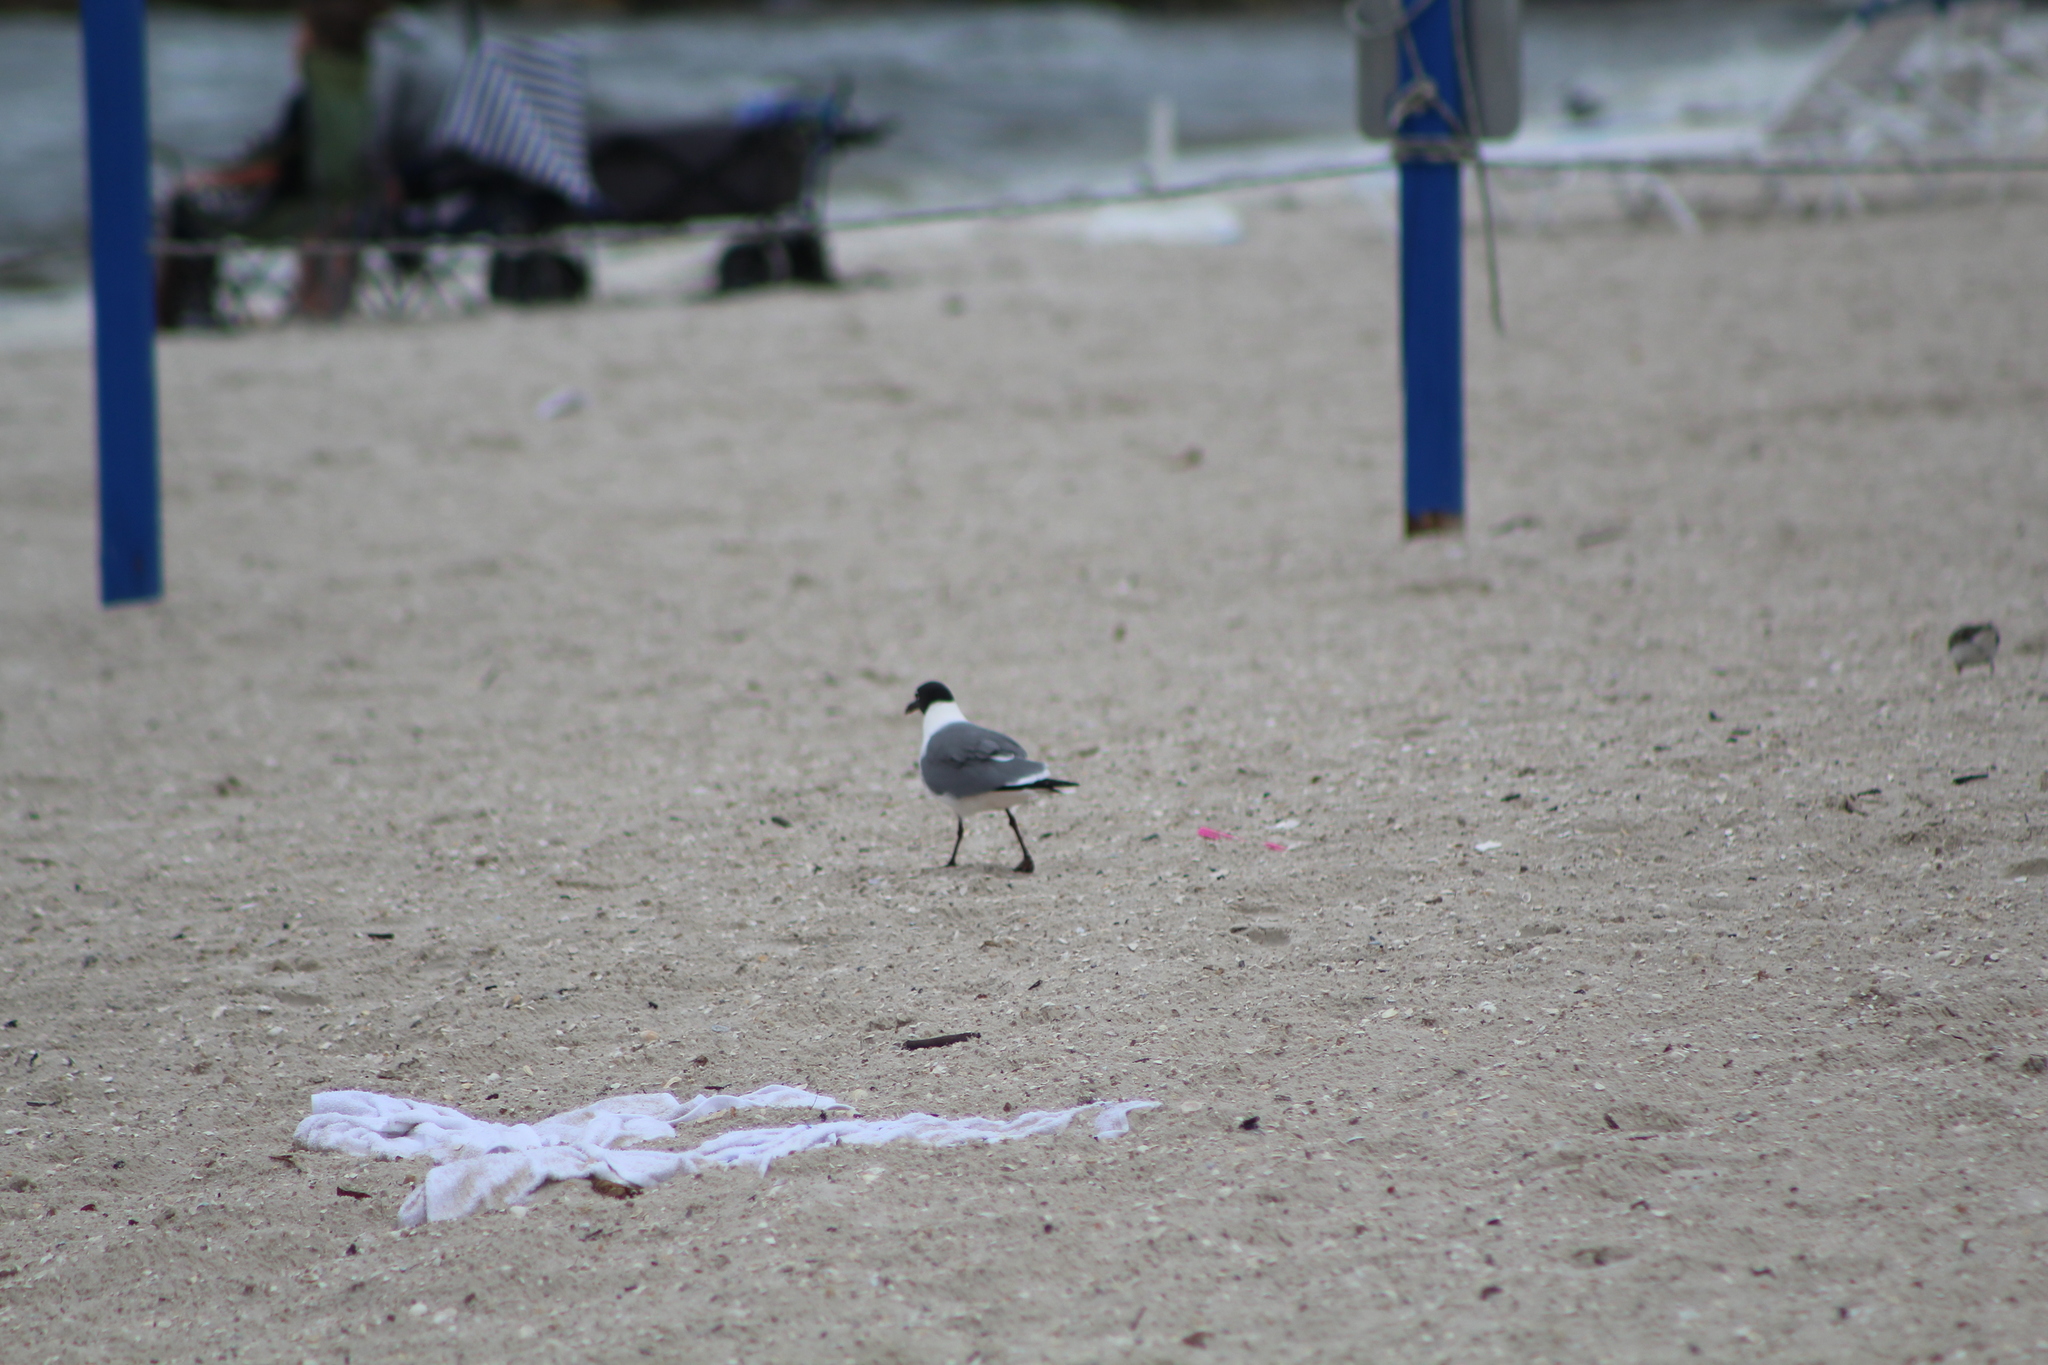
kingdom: Animalia
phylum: Chordata
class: Aves
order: Charadriiformes
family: Laridae
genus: Leucophaeus
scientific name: Leucophaeus atricilla
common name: Laughing gull
